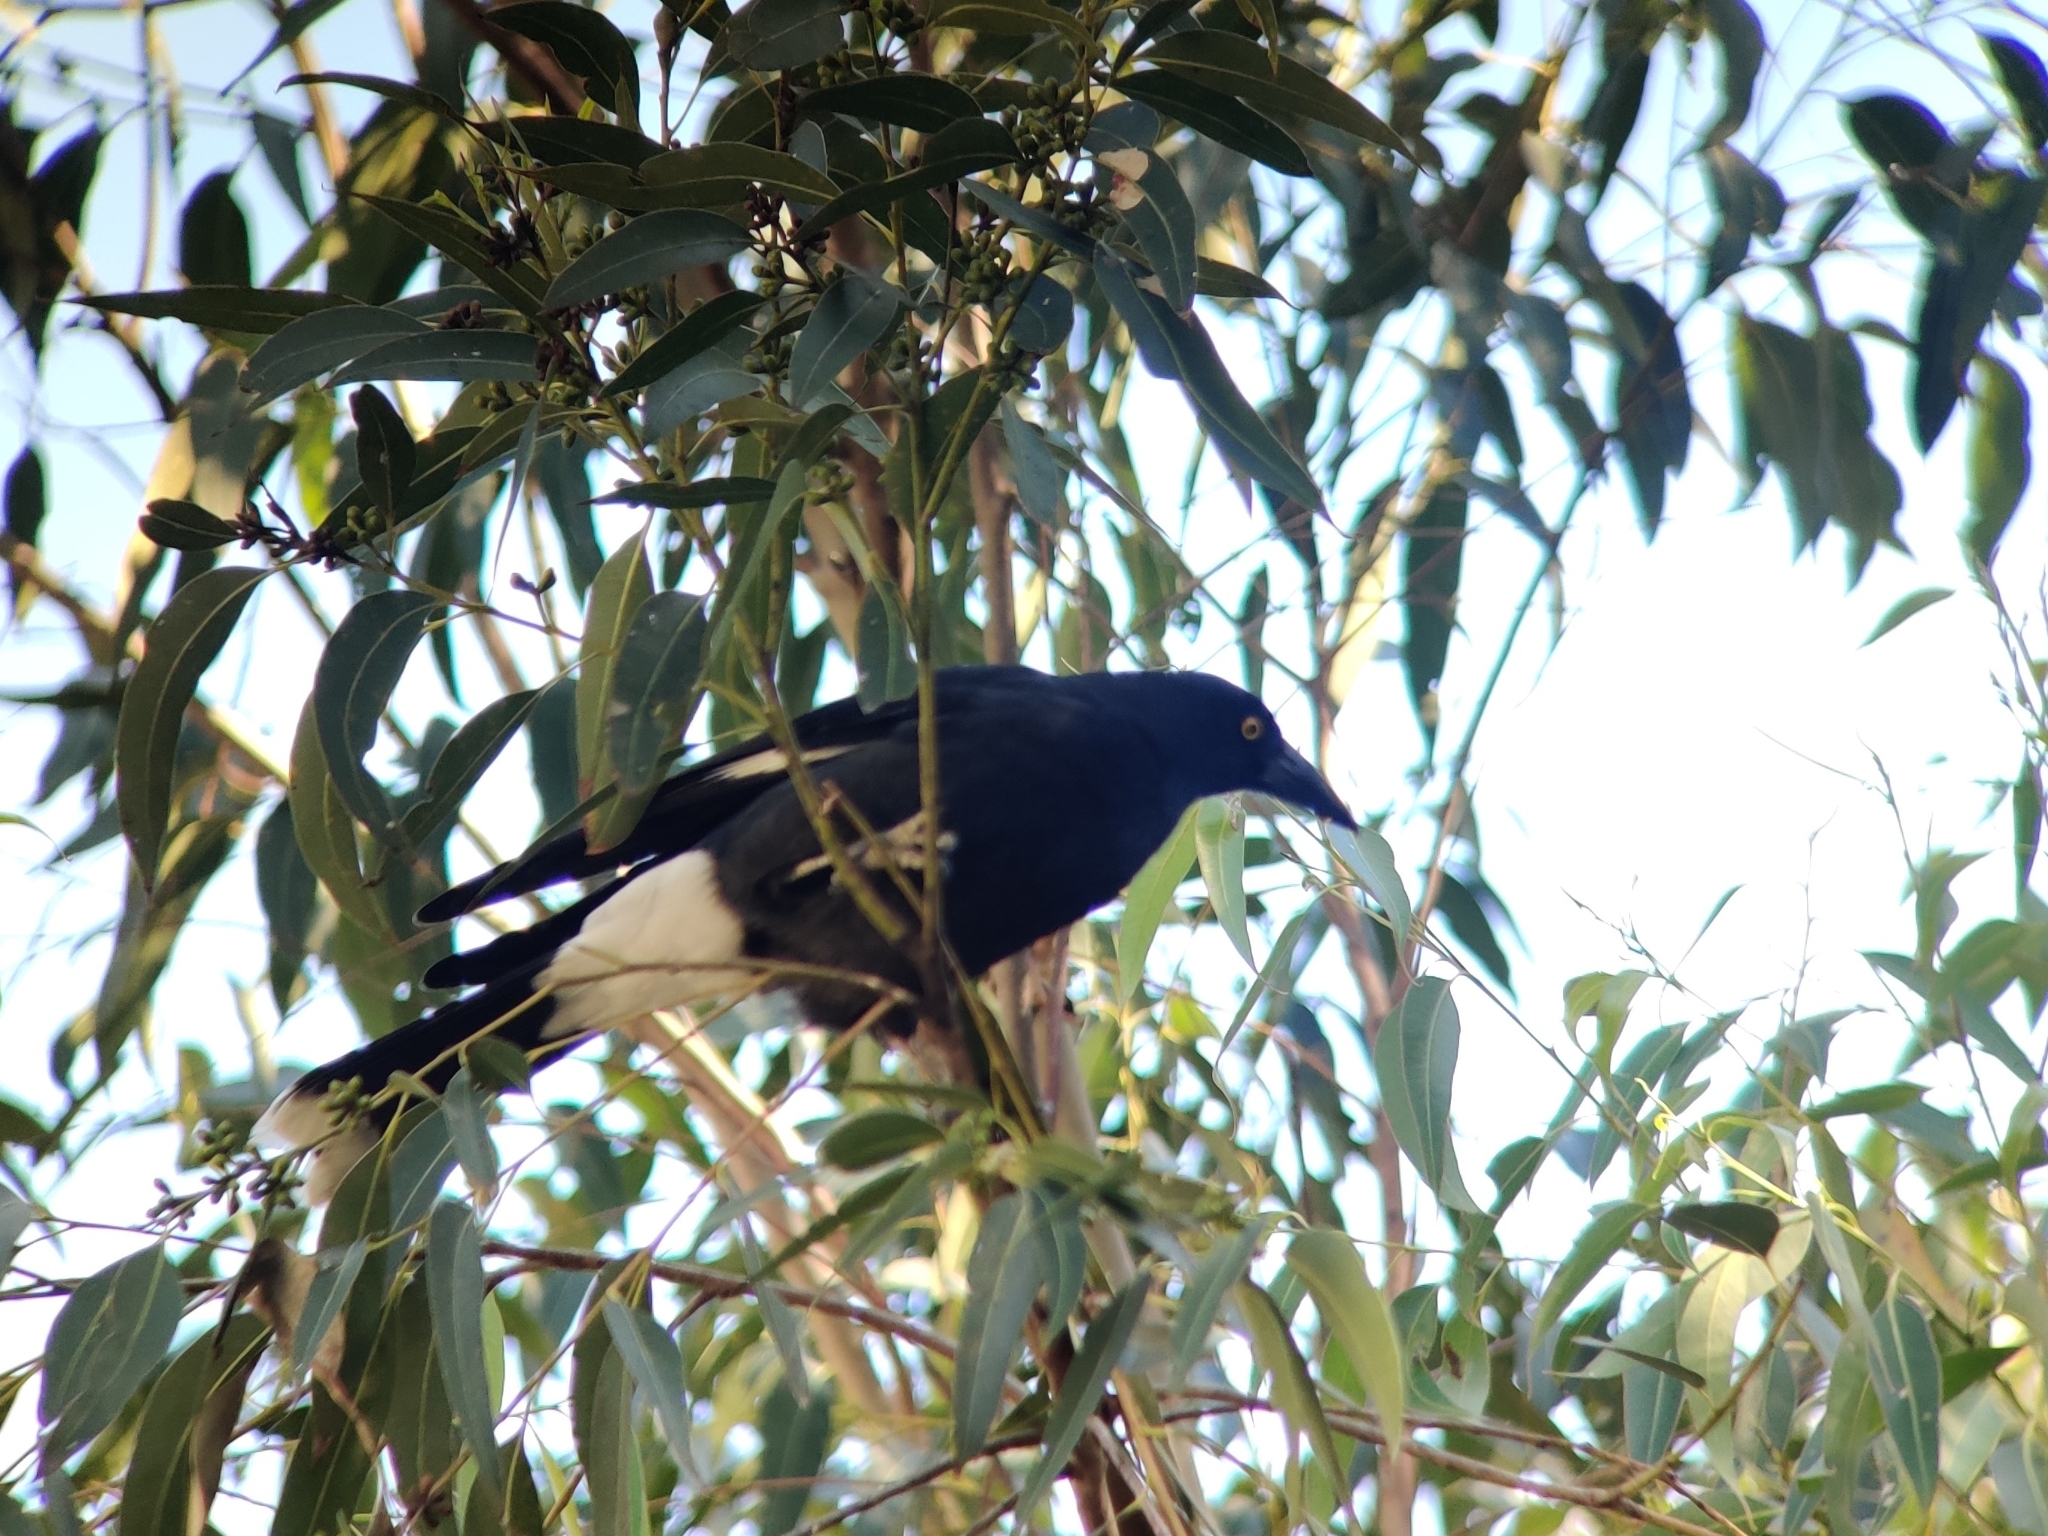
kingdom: Animalia
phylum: Chordata
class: Aves
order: Passeriformes
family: Cracticidae
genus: Strepera
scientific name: Strepera graculina
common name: Pied currawong
